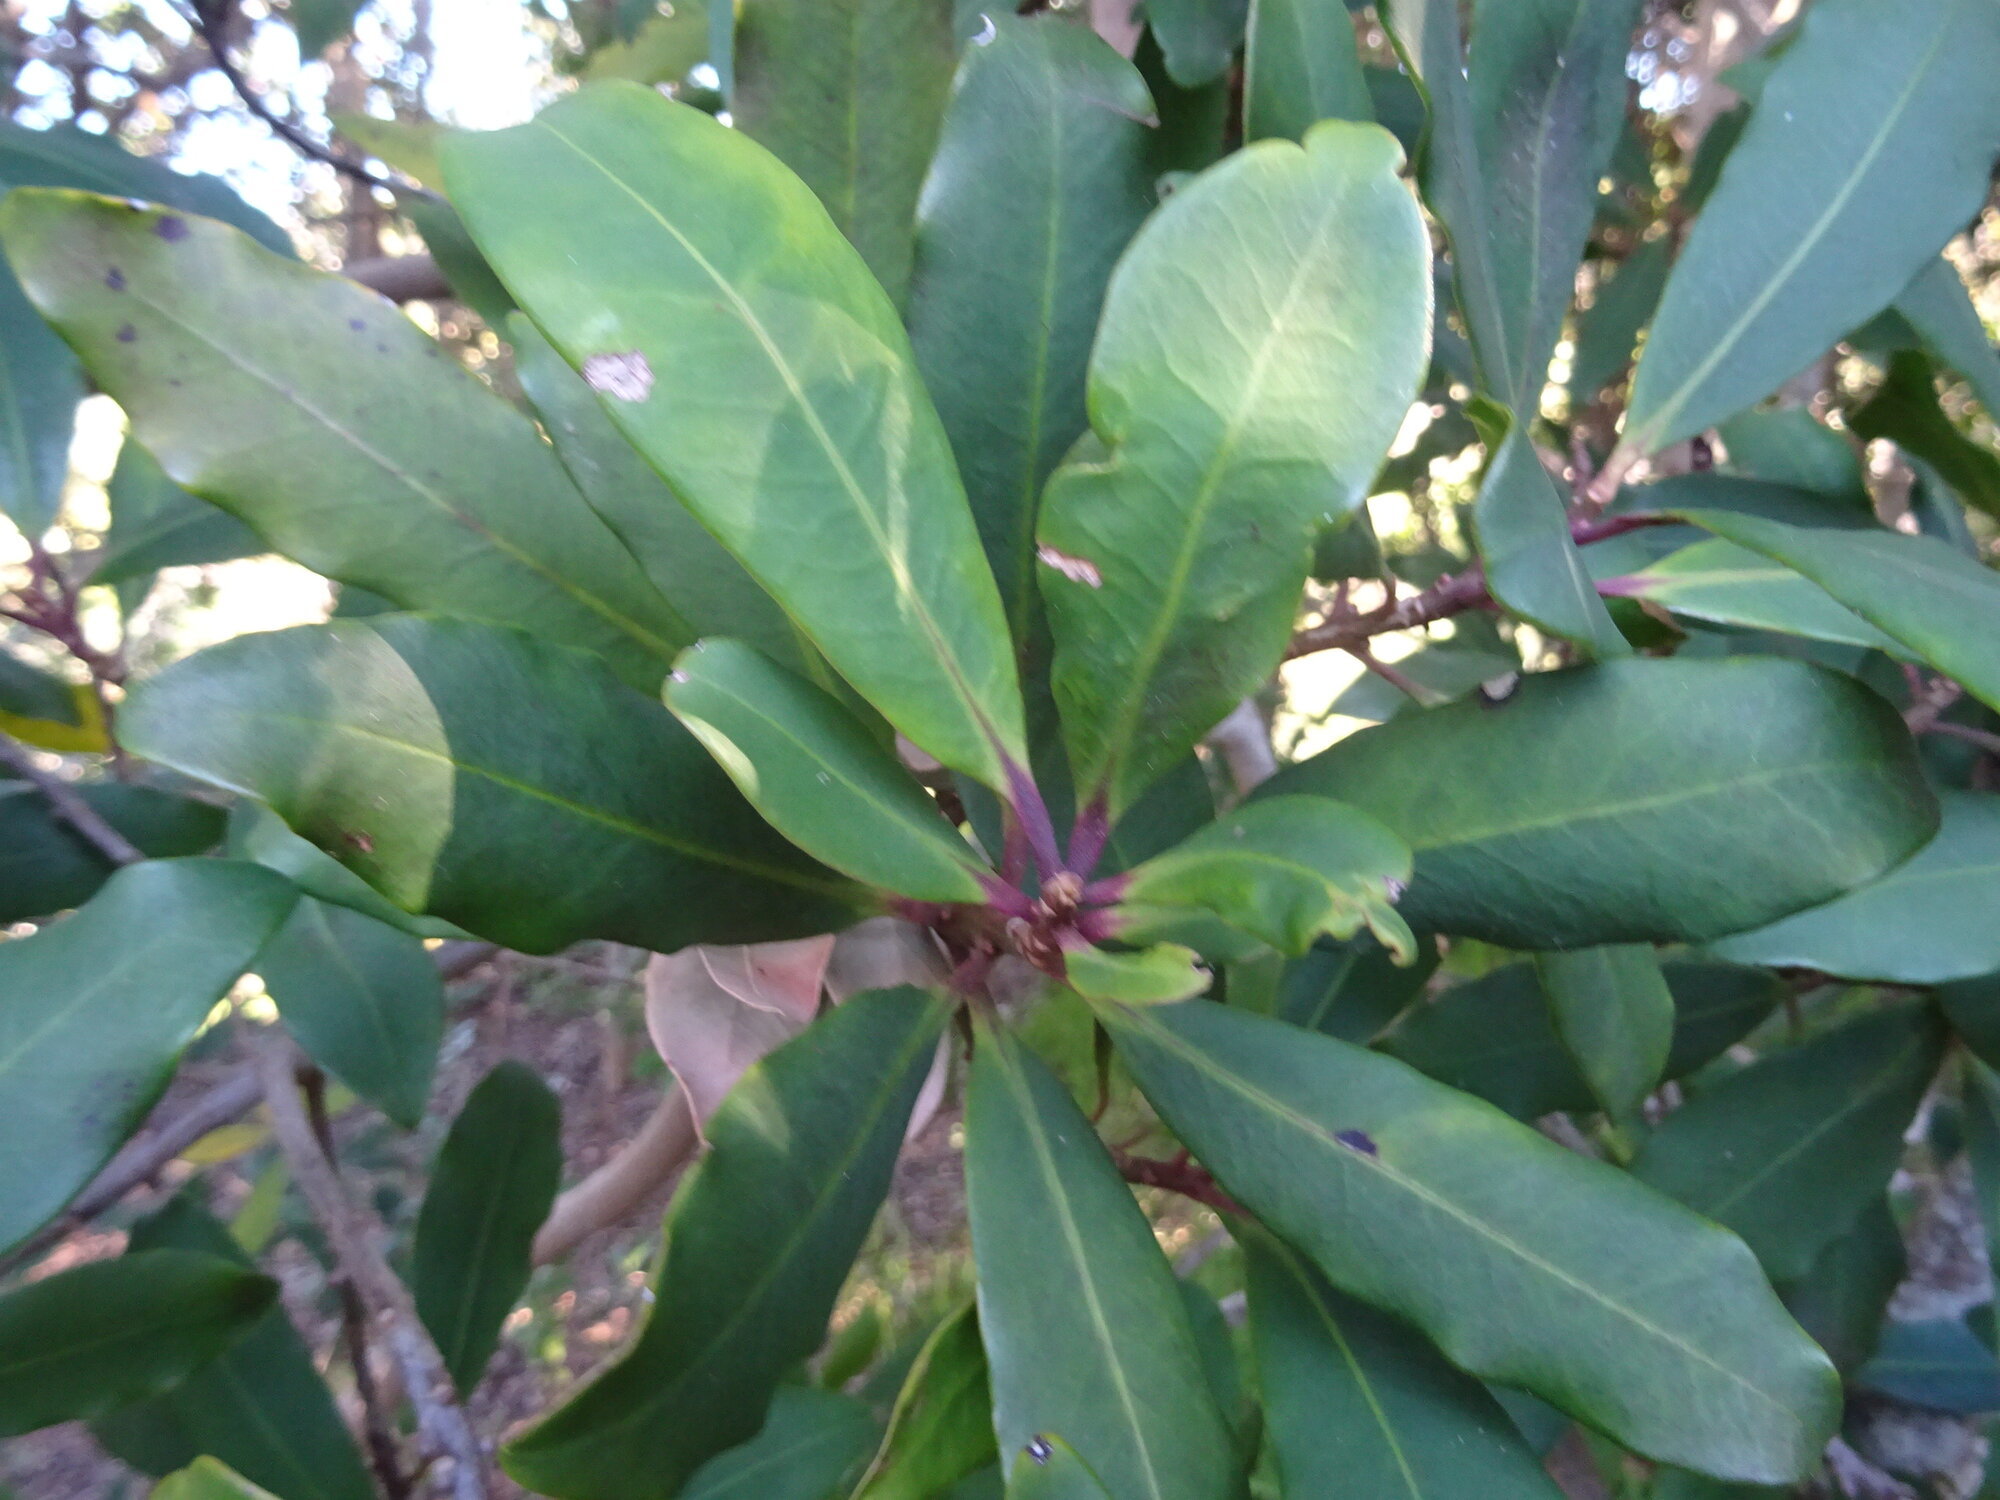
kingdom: Plantae
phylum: Tracheophyta
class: Magnoliopsida
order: Ericales
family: Primulaceae
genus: Myrsine
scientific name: Myrsine melanophloeos
